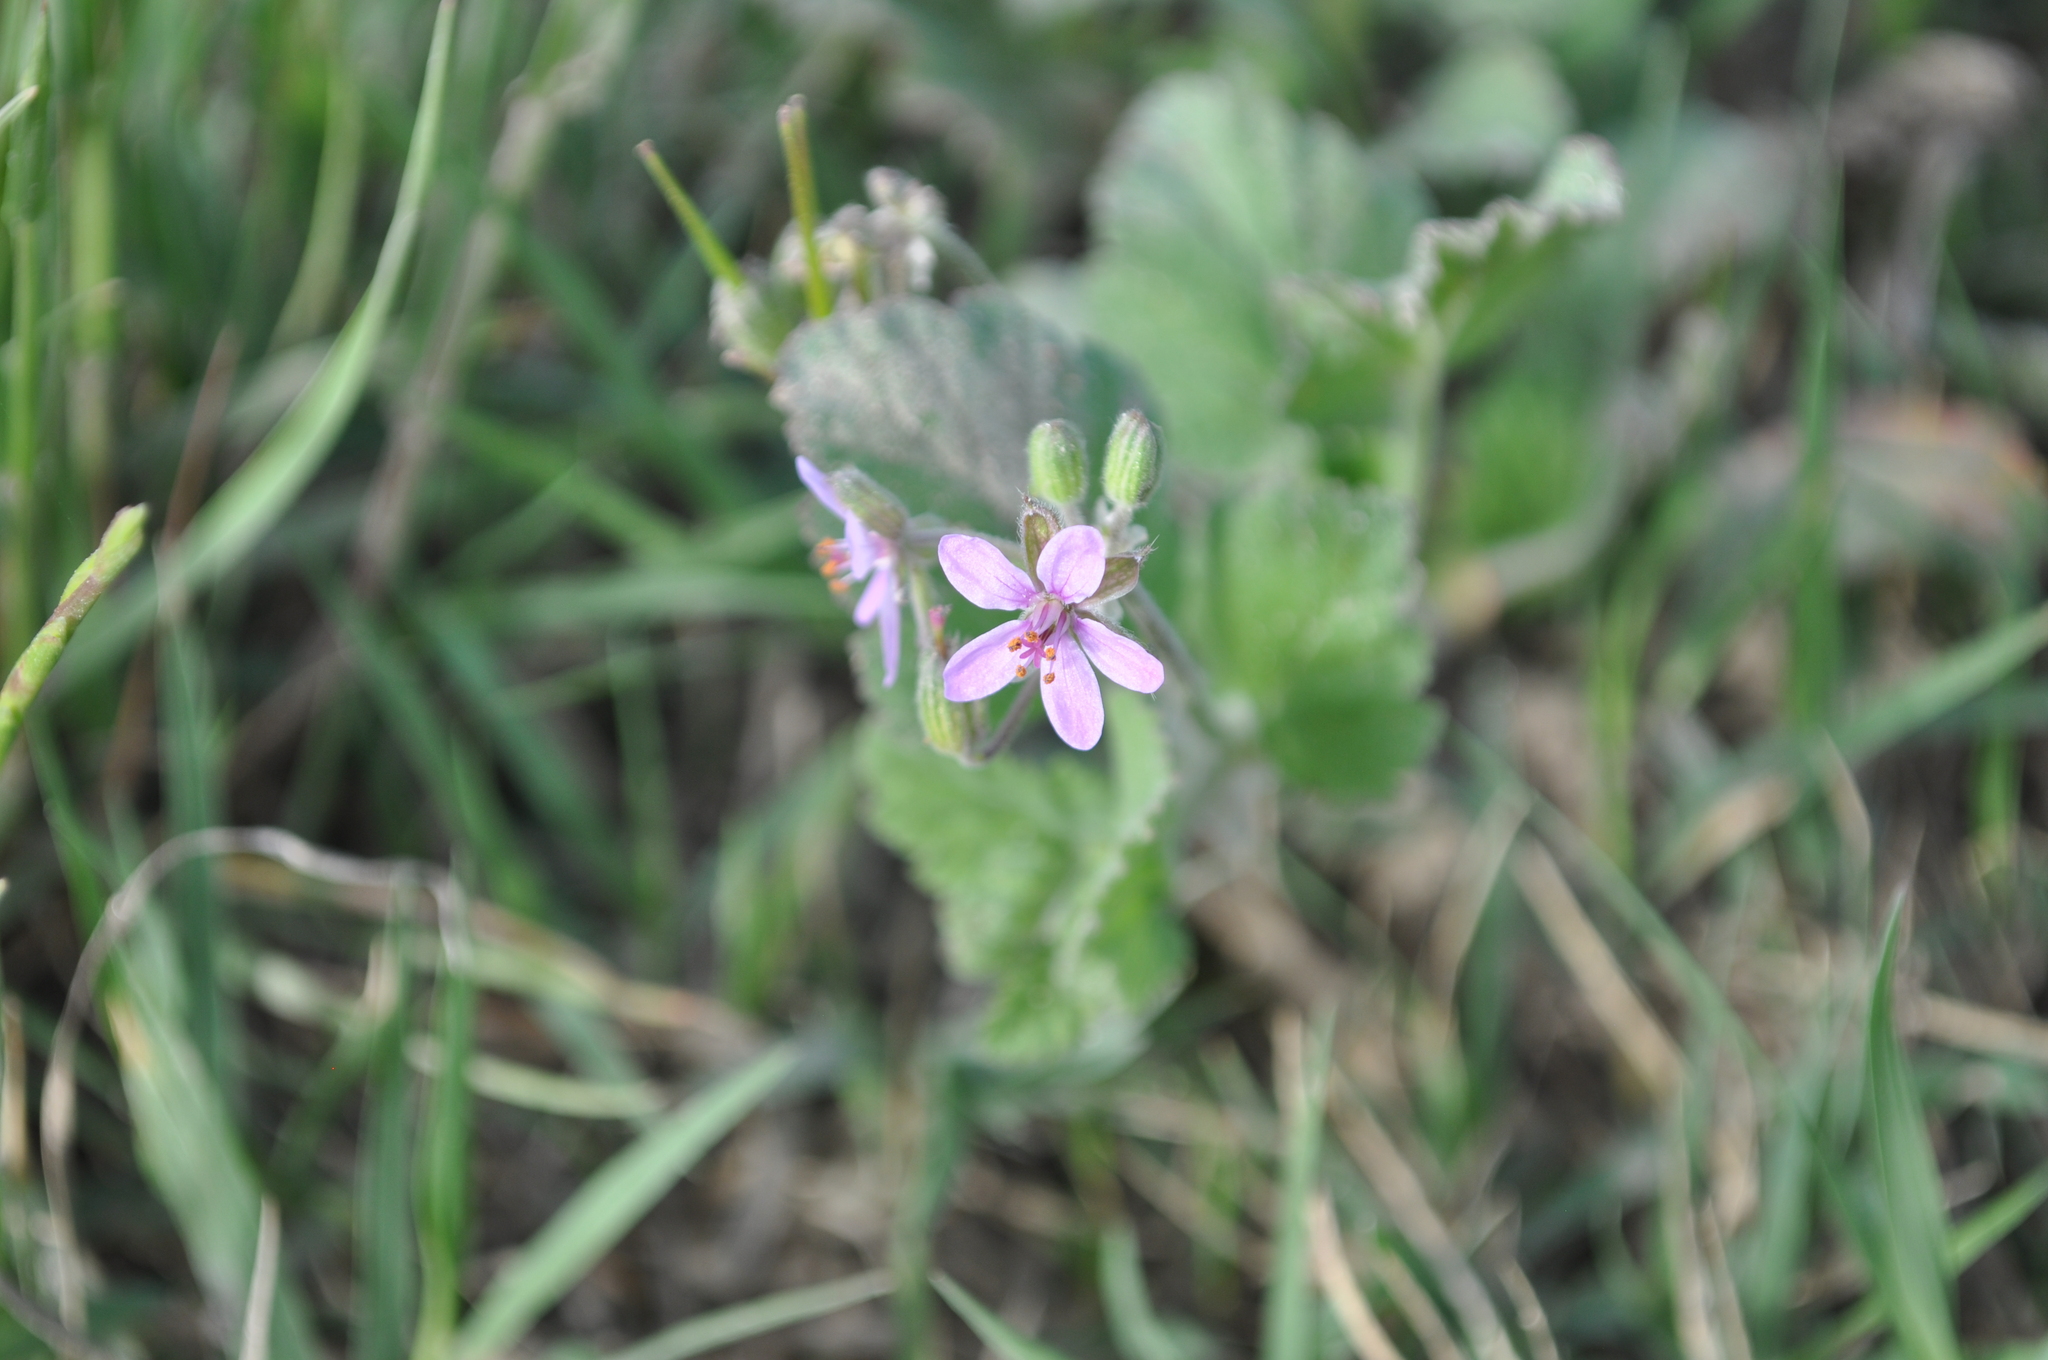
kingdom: Plantae
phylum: Tracheophyta
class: Magnoliopsida
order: Geraniales
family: Geraniaceae
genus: Erodium
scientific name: Erodium malacoides
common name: Soft stork's-bill
